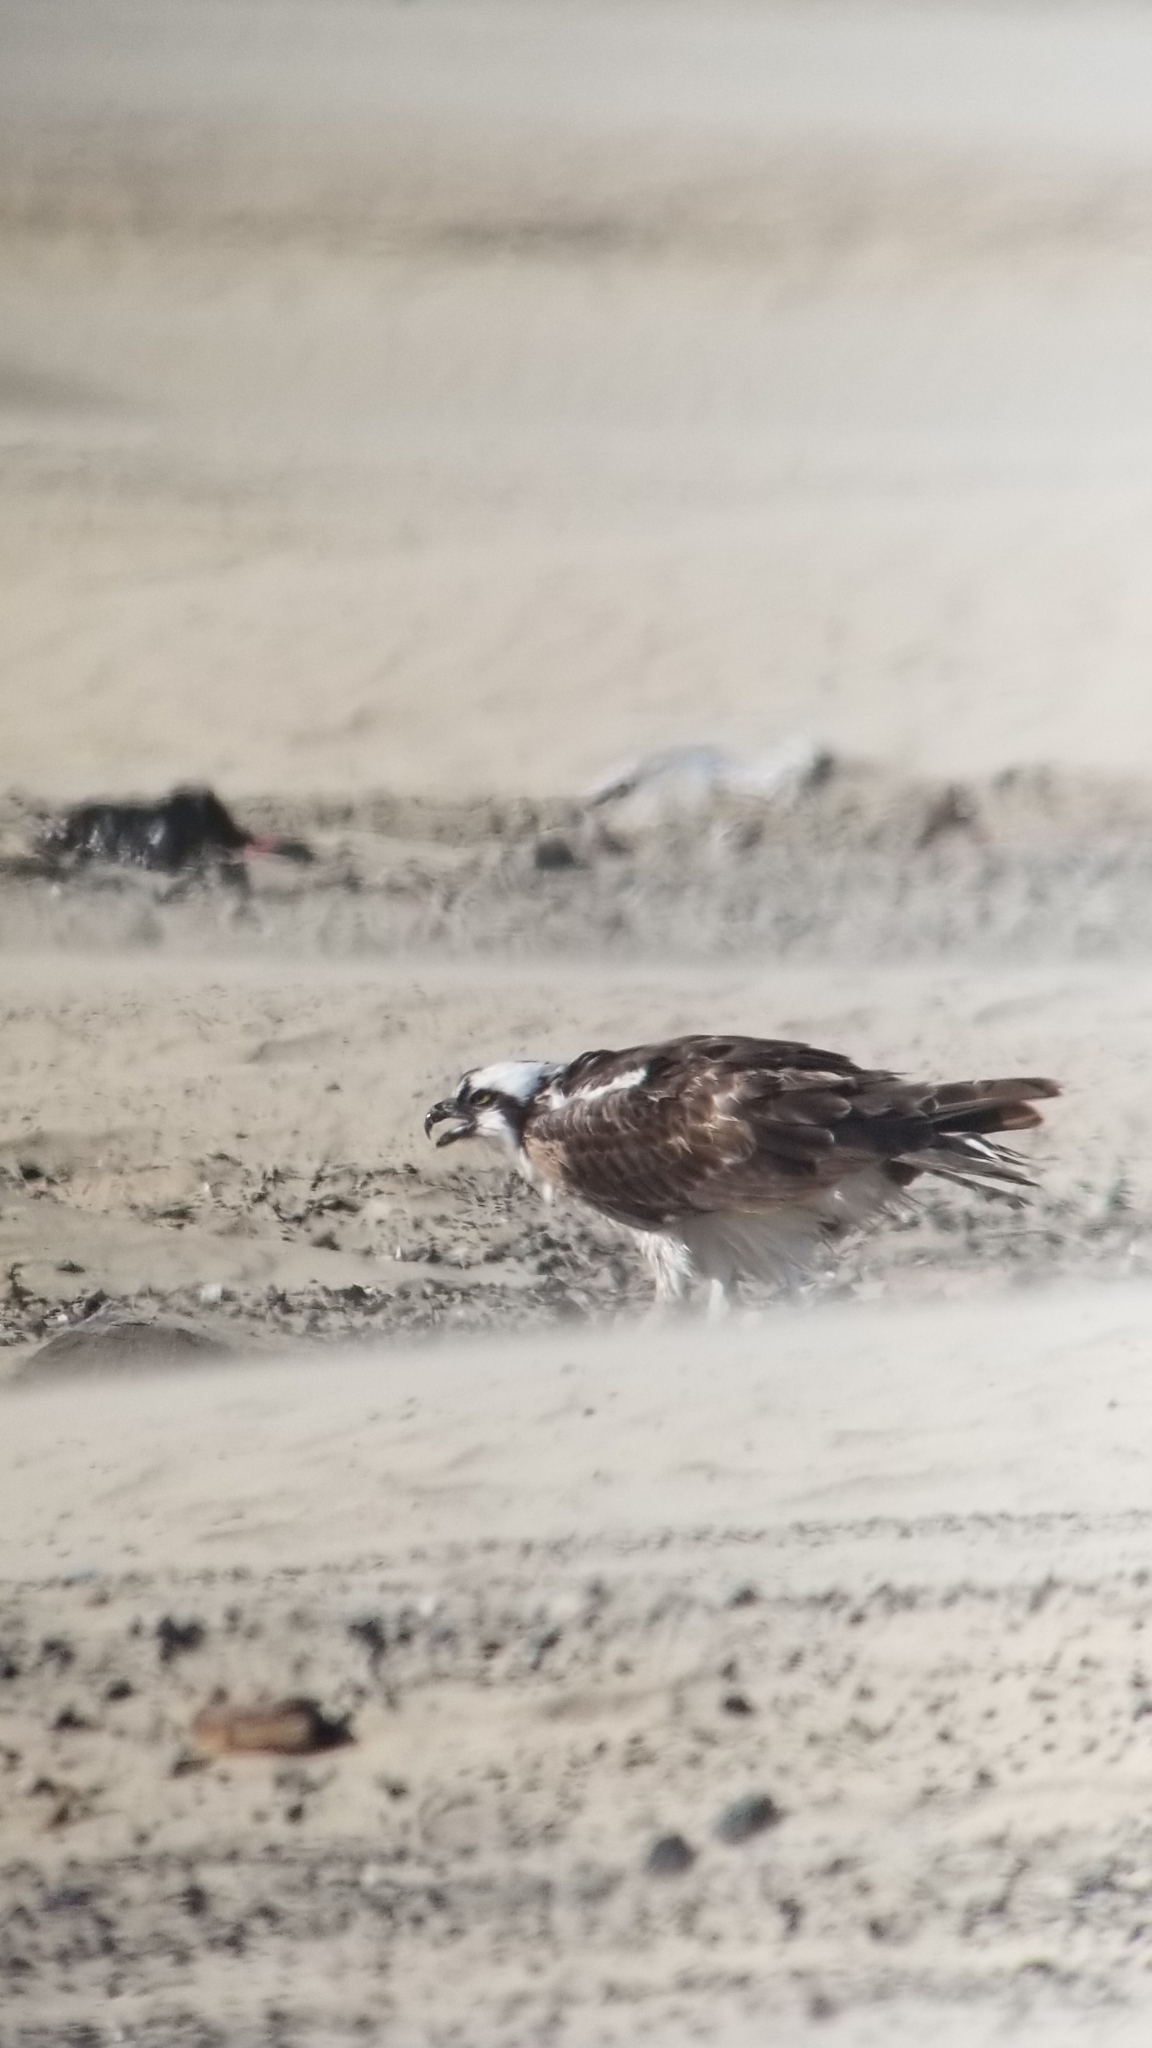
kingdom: Animalia
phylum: Chordata
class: Aves
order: Accipitriformes
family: Pandionidae
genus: Pandion
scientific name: Pandion haliaetus
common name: Osprey
